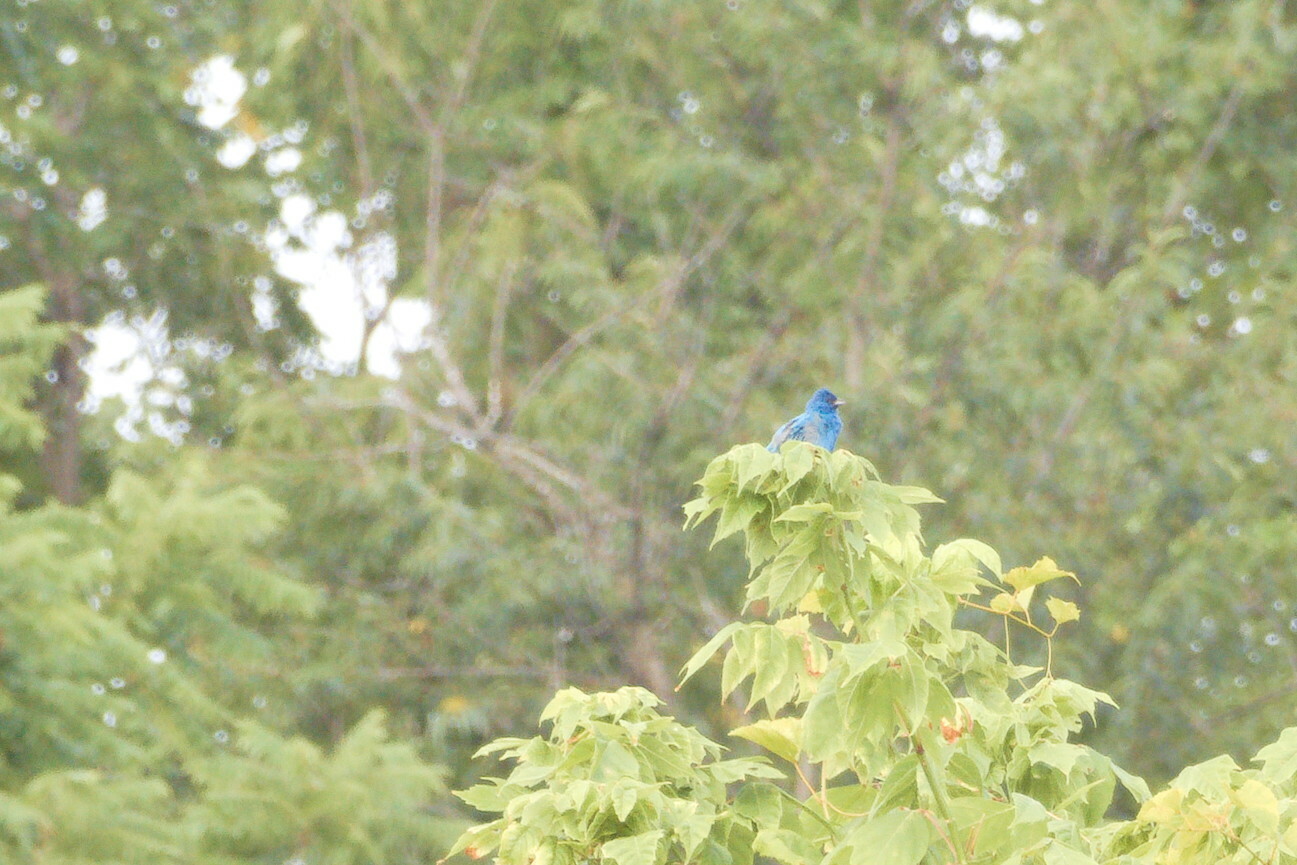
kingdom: Animalia
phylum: Chordata
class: Aves
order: Passeriformes
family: Cardinalidae
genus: Passerina
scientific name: Passerina cyanea
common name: Indigo bunting
